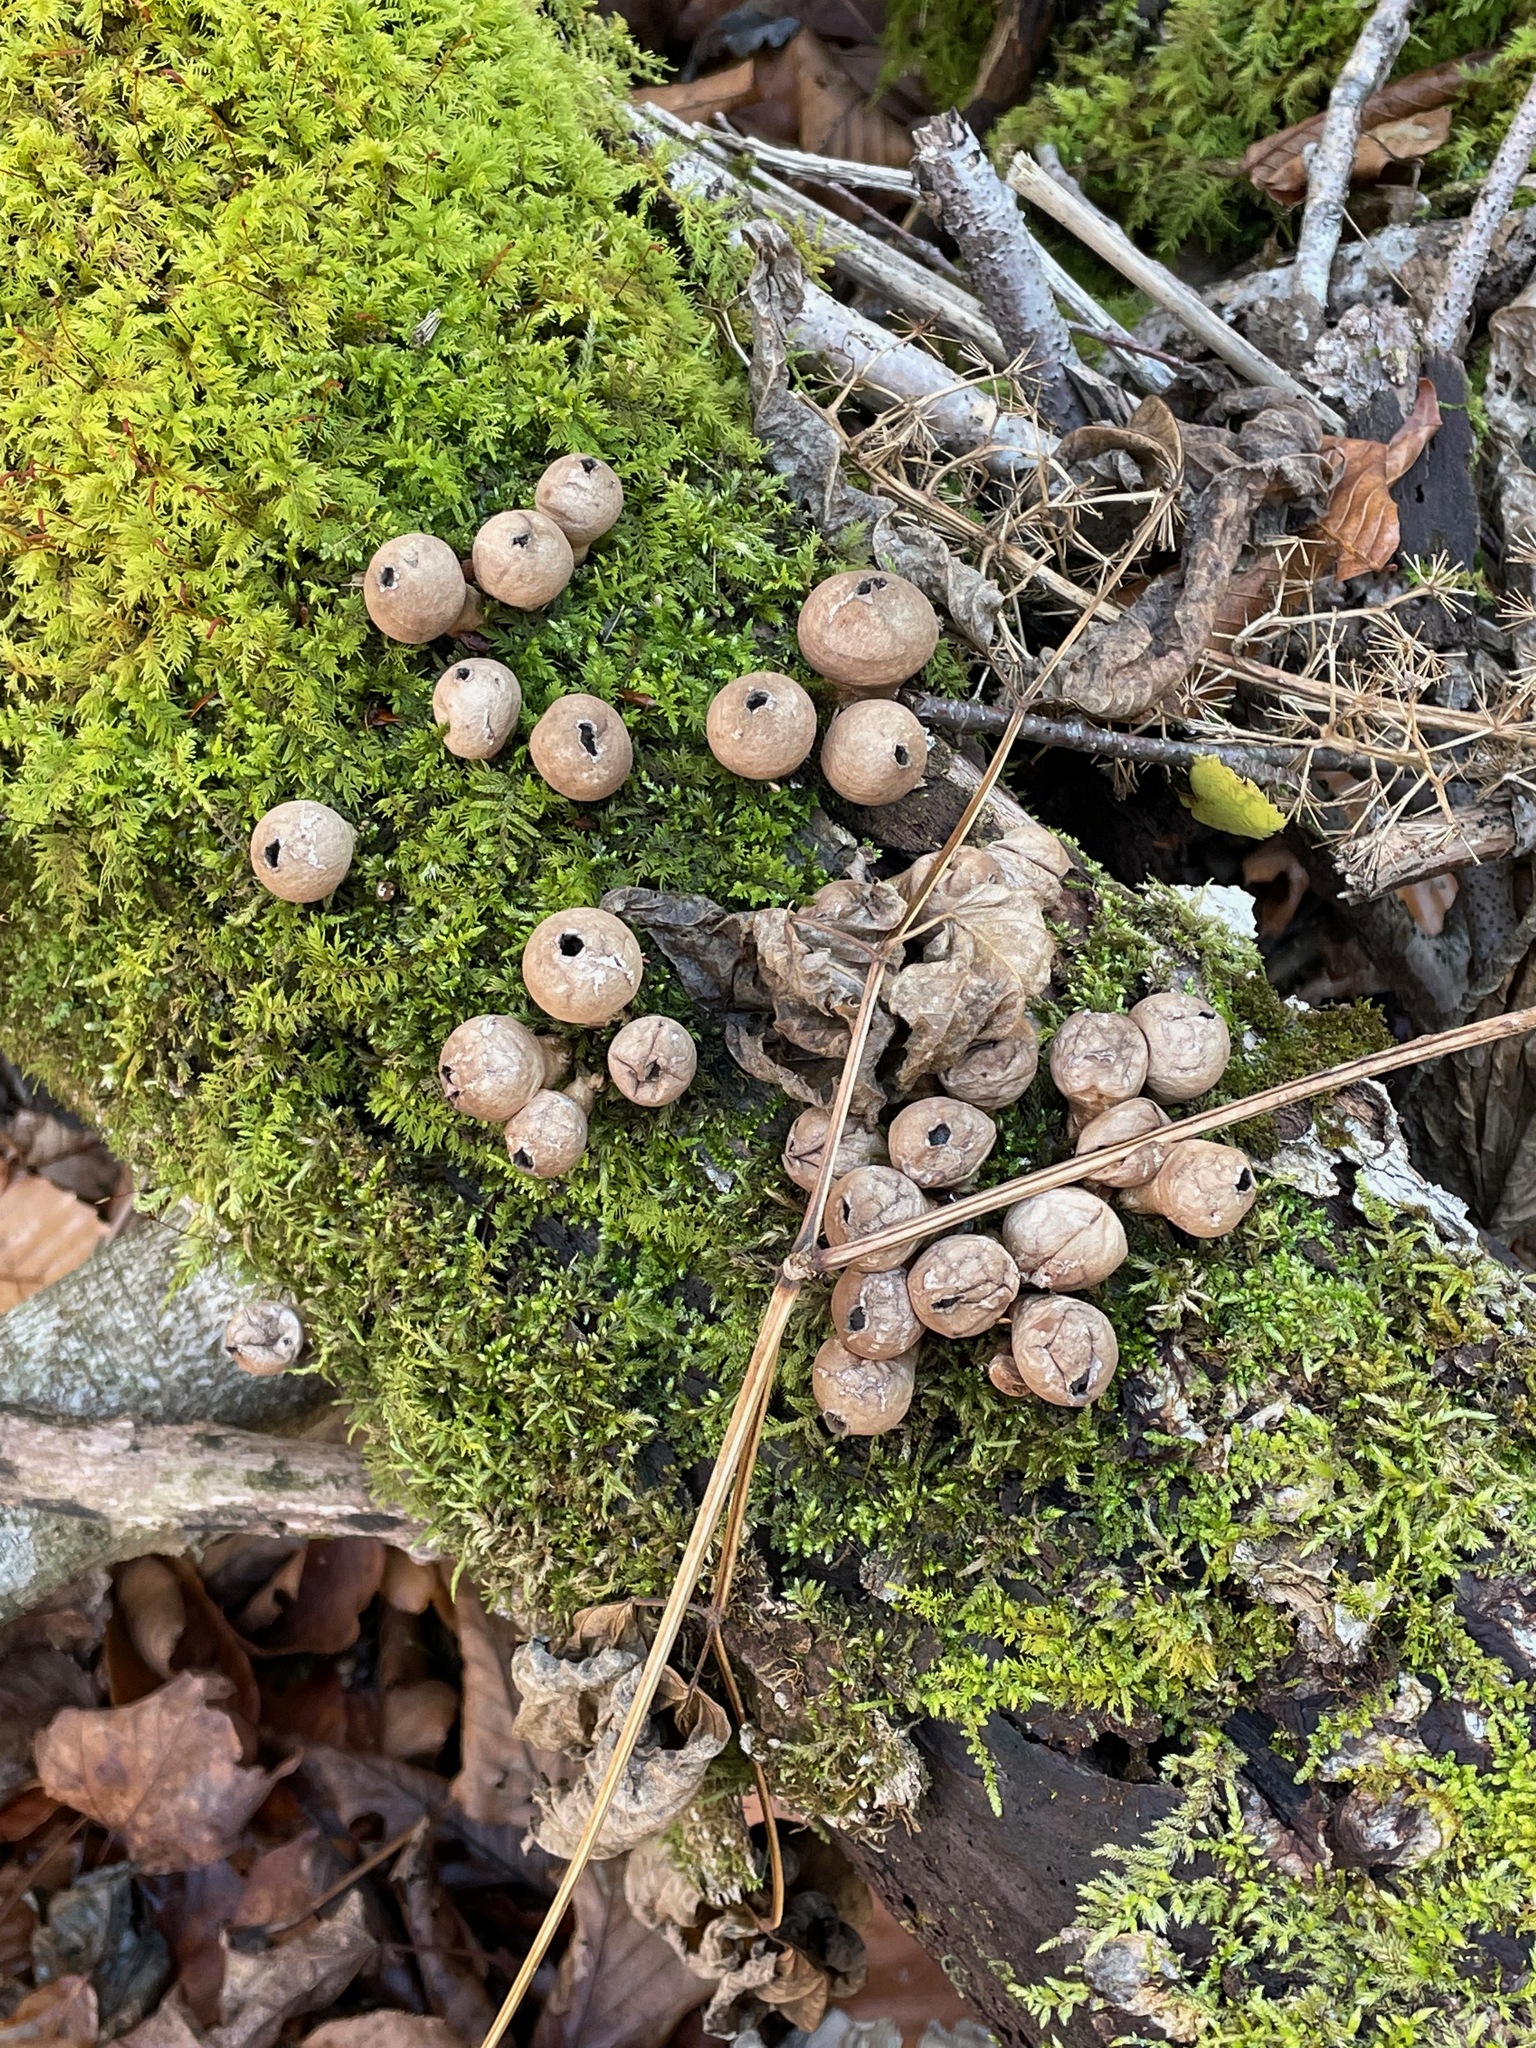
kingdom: Fungi
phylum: Basidiomycota
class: Agaricomycetes
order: Agaricales
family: Lycoperdaceae
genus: Apioperdon
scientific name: Apioperdon pyriforme
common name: Pear-shaped puffball
